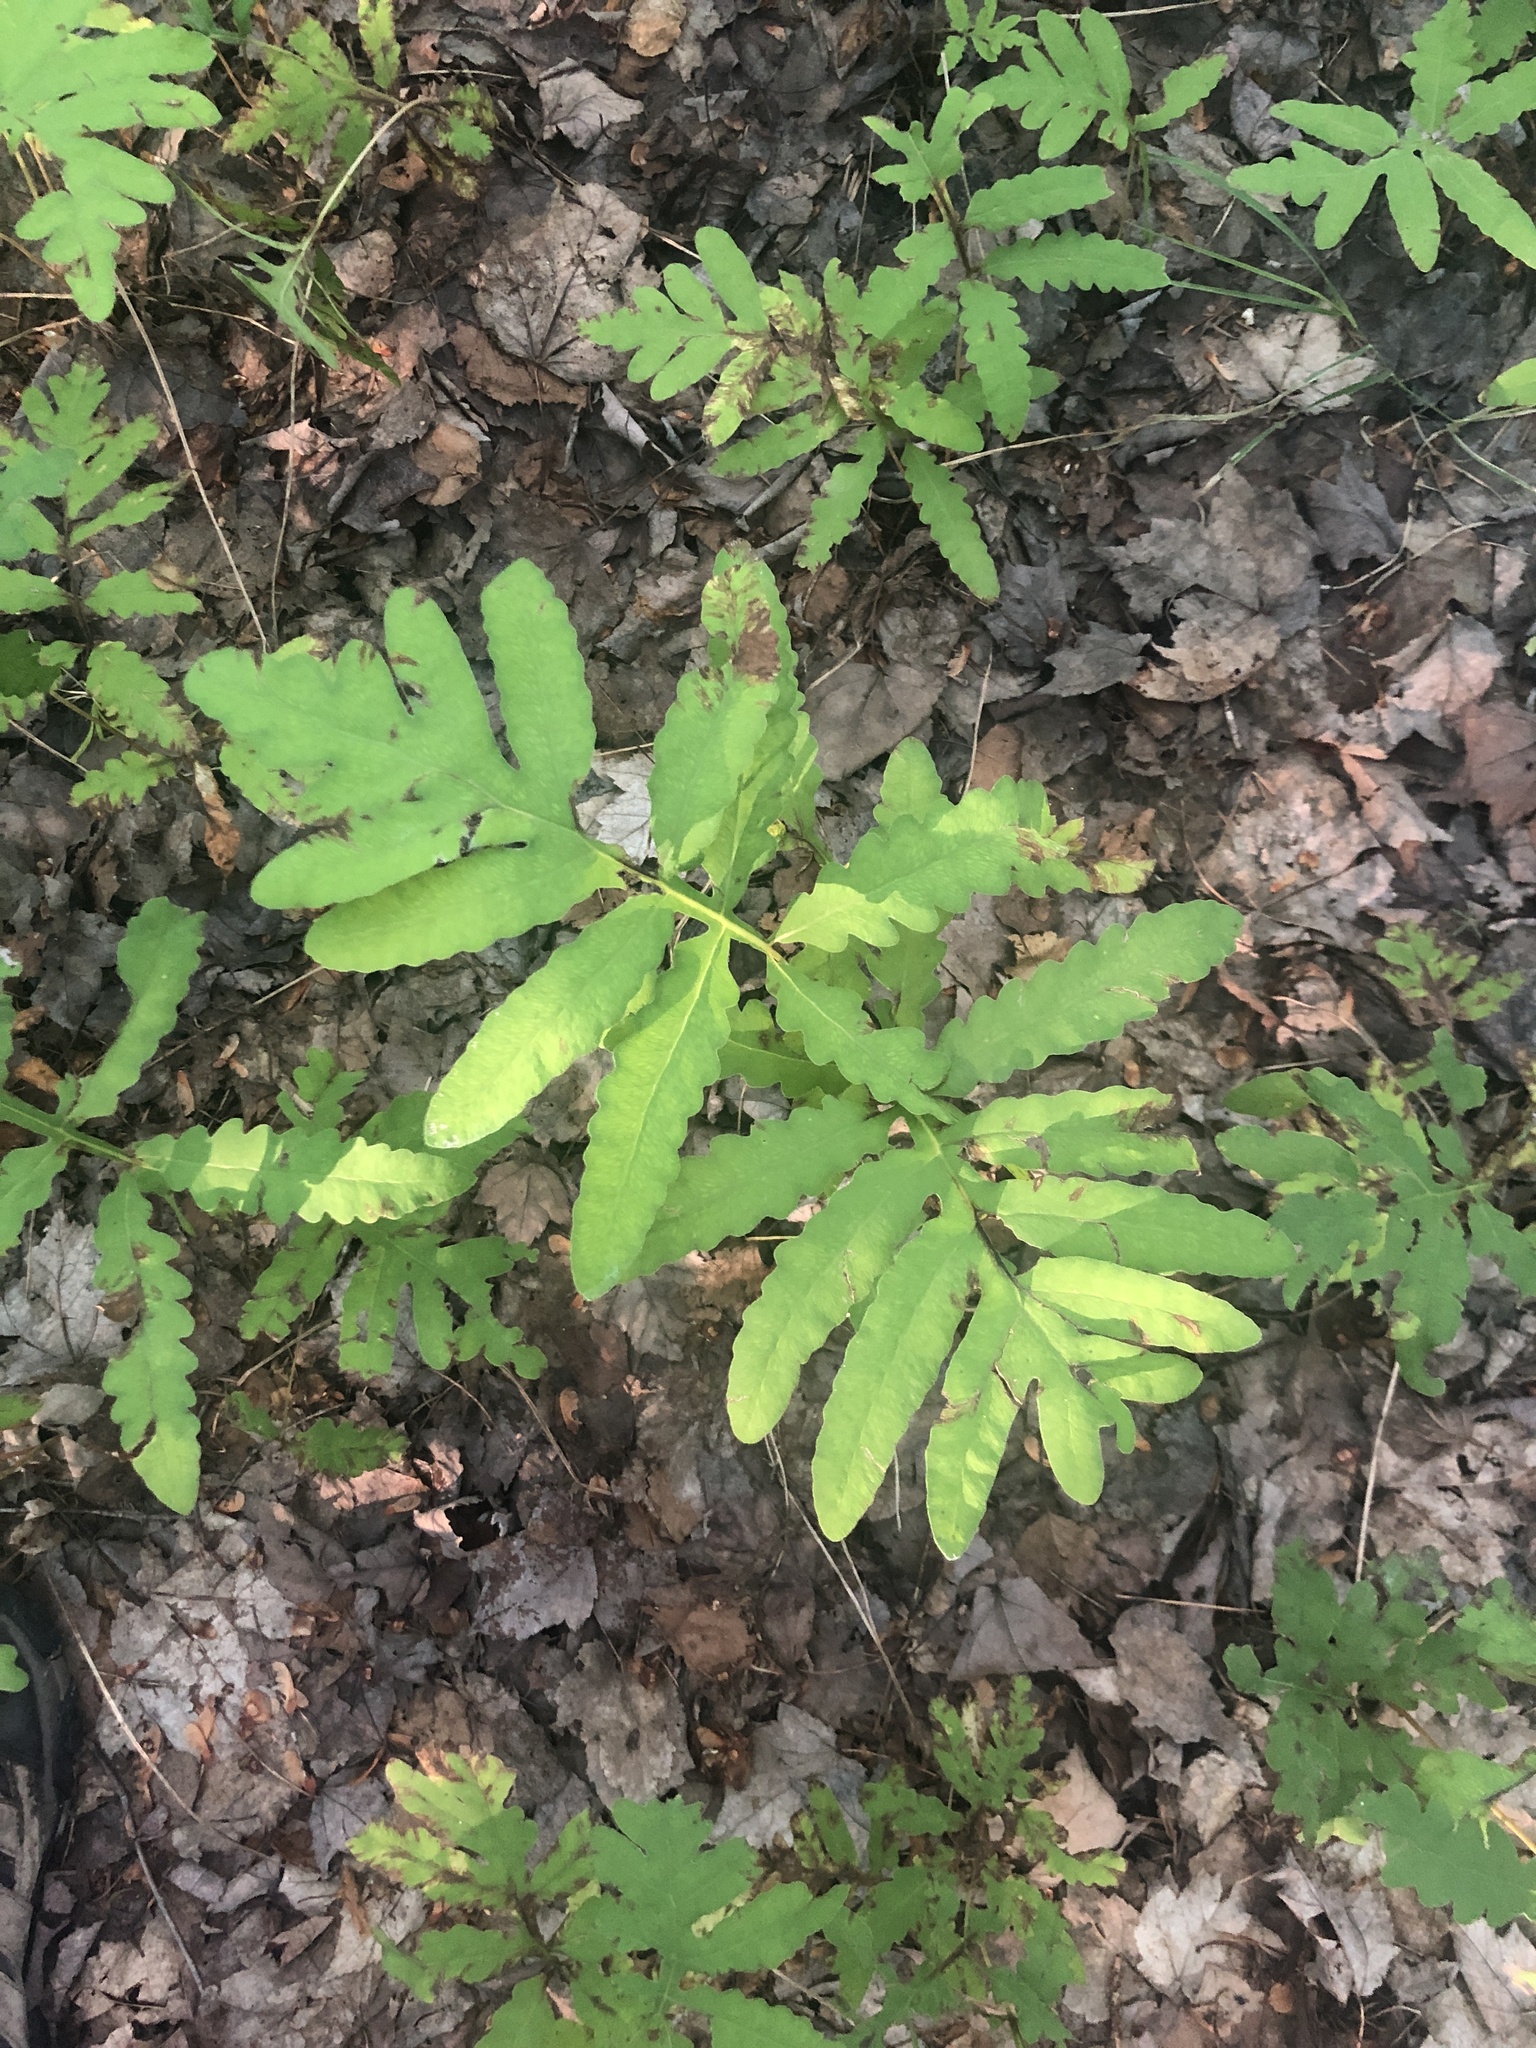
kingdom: Plantae
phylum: Tracheophyta
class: Polypodiopsida
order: Polypodiales
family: Onocleaceae
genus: Onoclea
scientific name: Onoclea sensibilis
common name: Sensitive fern
